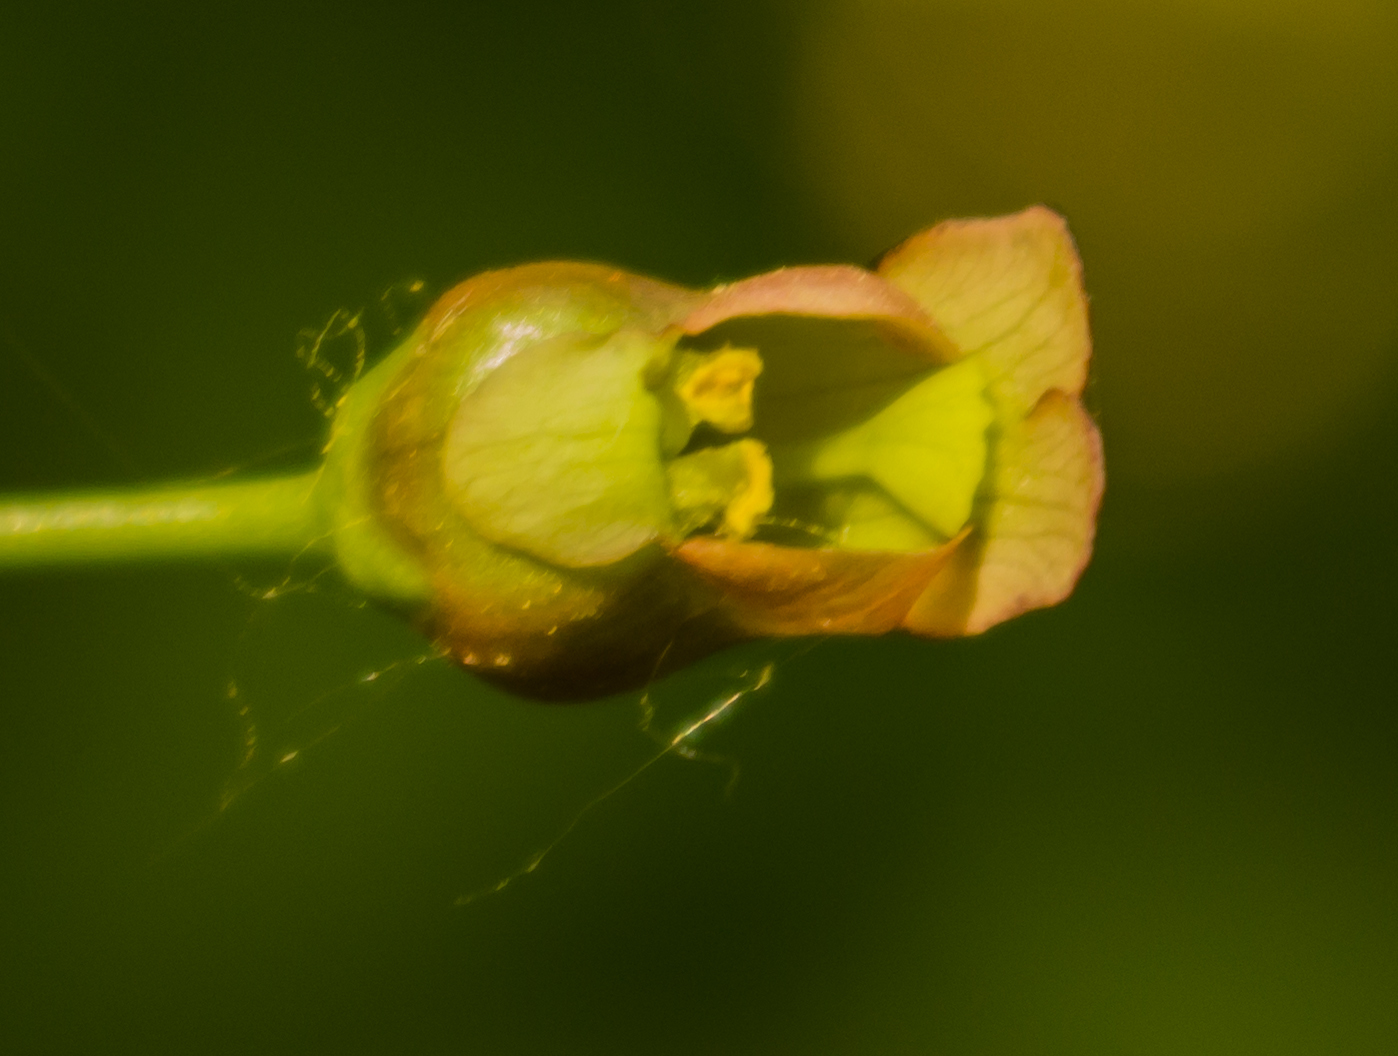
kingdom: Plantae
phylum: Tracheophyta
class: Magnoliopsida
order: Lamiales
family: Scrophulariaceae
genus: Scrophularia
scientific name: Scrophularia lanceolata
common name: American figwort
